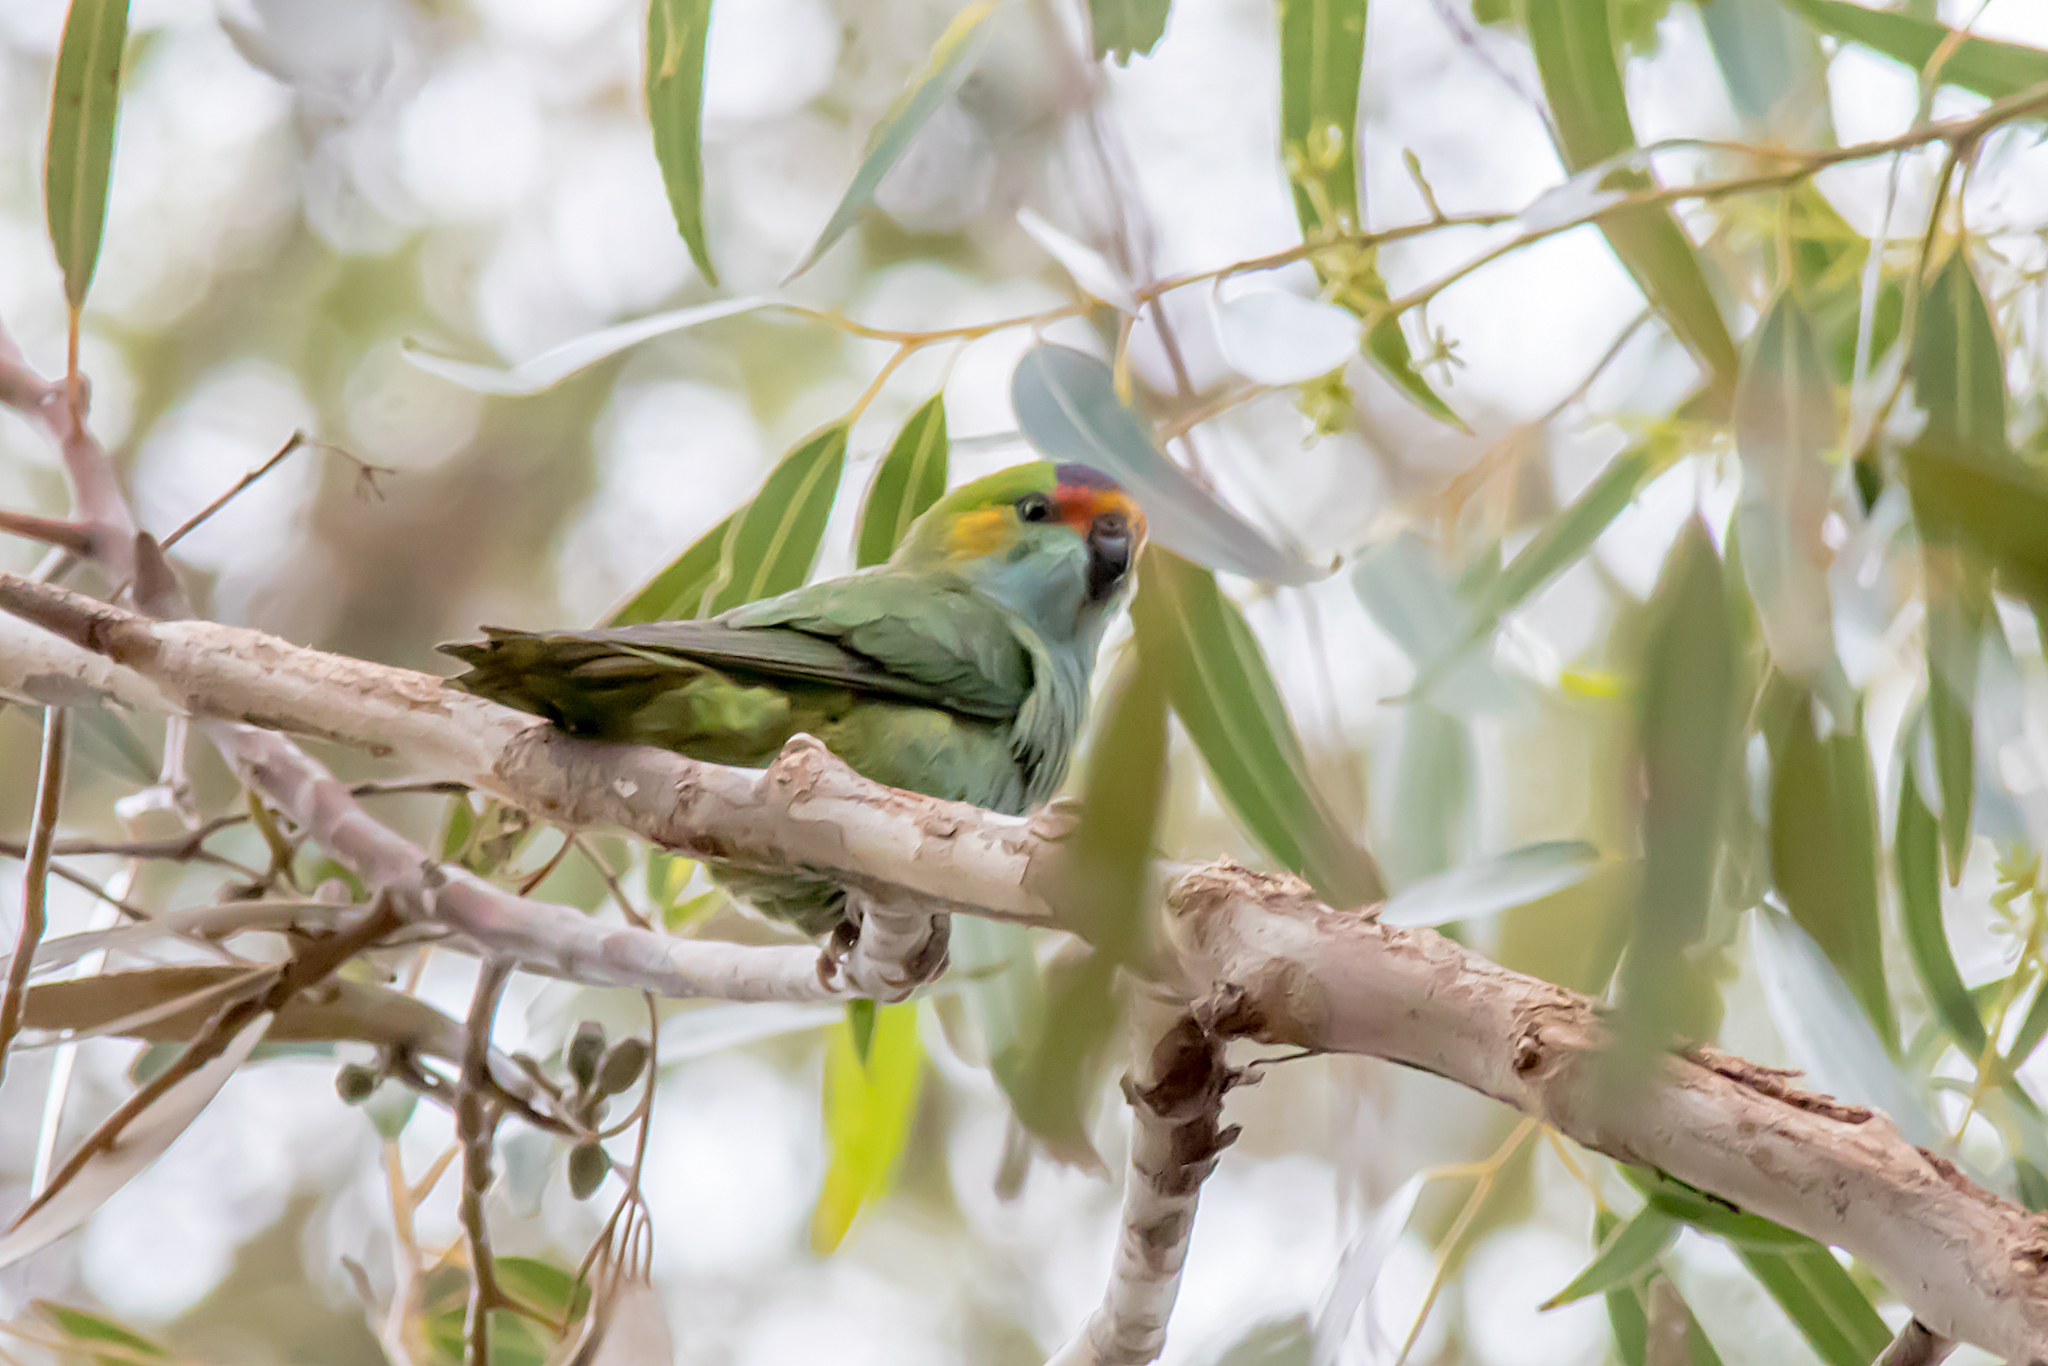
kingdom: Animalia
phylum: Chordata
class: Aves
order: Psittaciformes
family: Psittaculidae
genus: Parvipsitta
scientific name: Parvipsitta porphyrocephala
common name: Purple-crowned lorikeet
